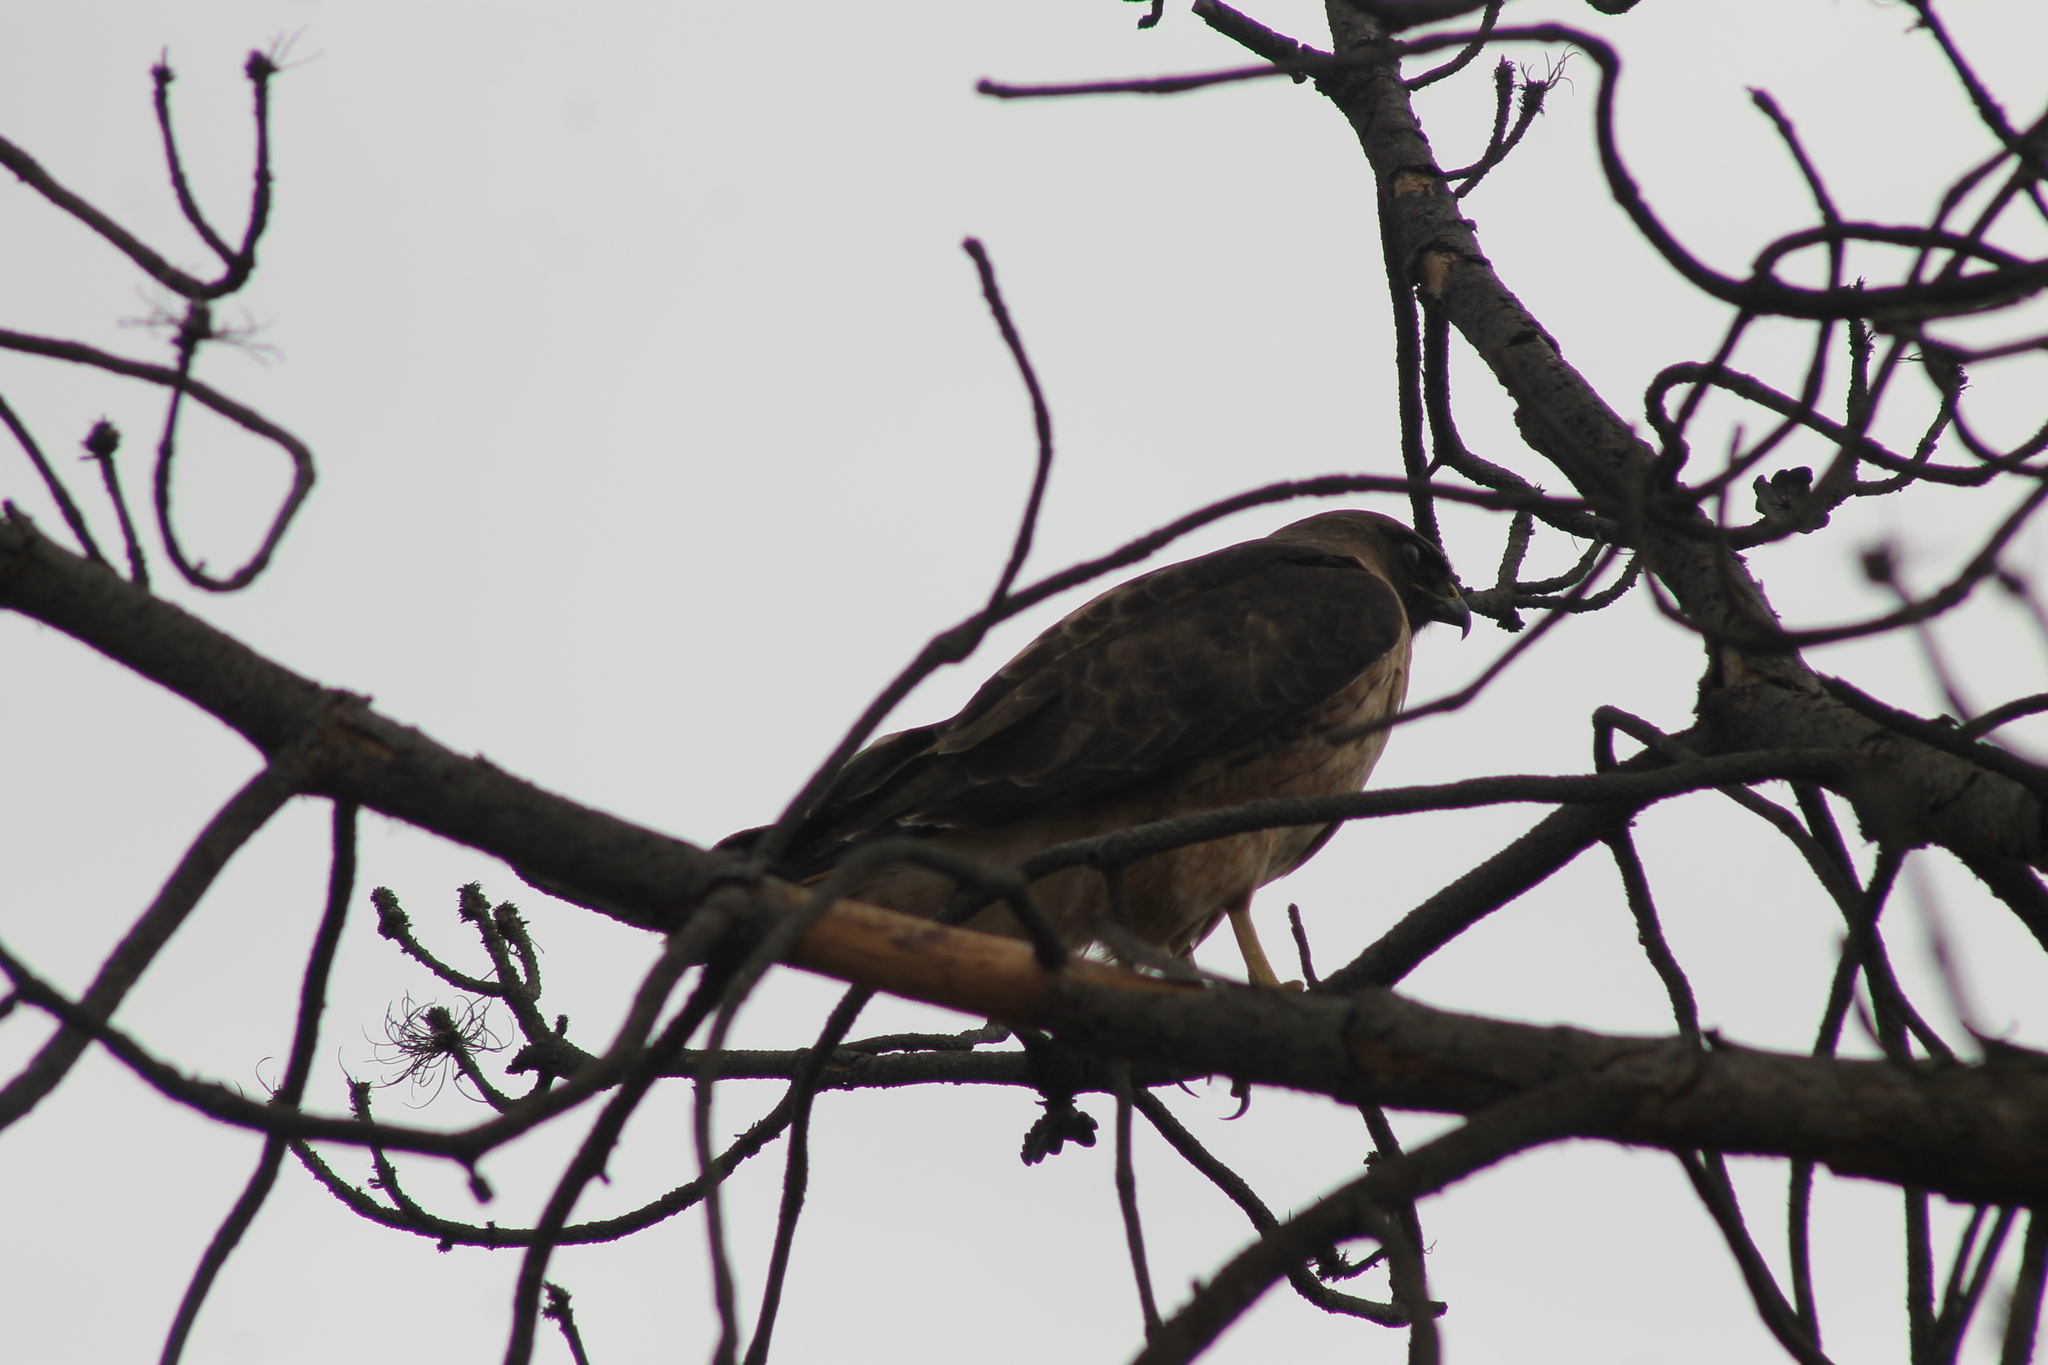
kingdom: Animalia
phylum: Chordata
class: Aves
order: Accipitriformes
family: Accipitridae
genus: Buteo
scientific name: Buteo jamaicensis
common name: Red-tailed hawk
